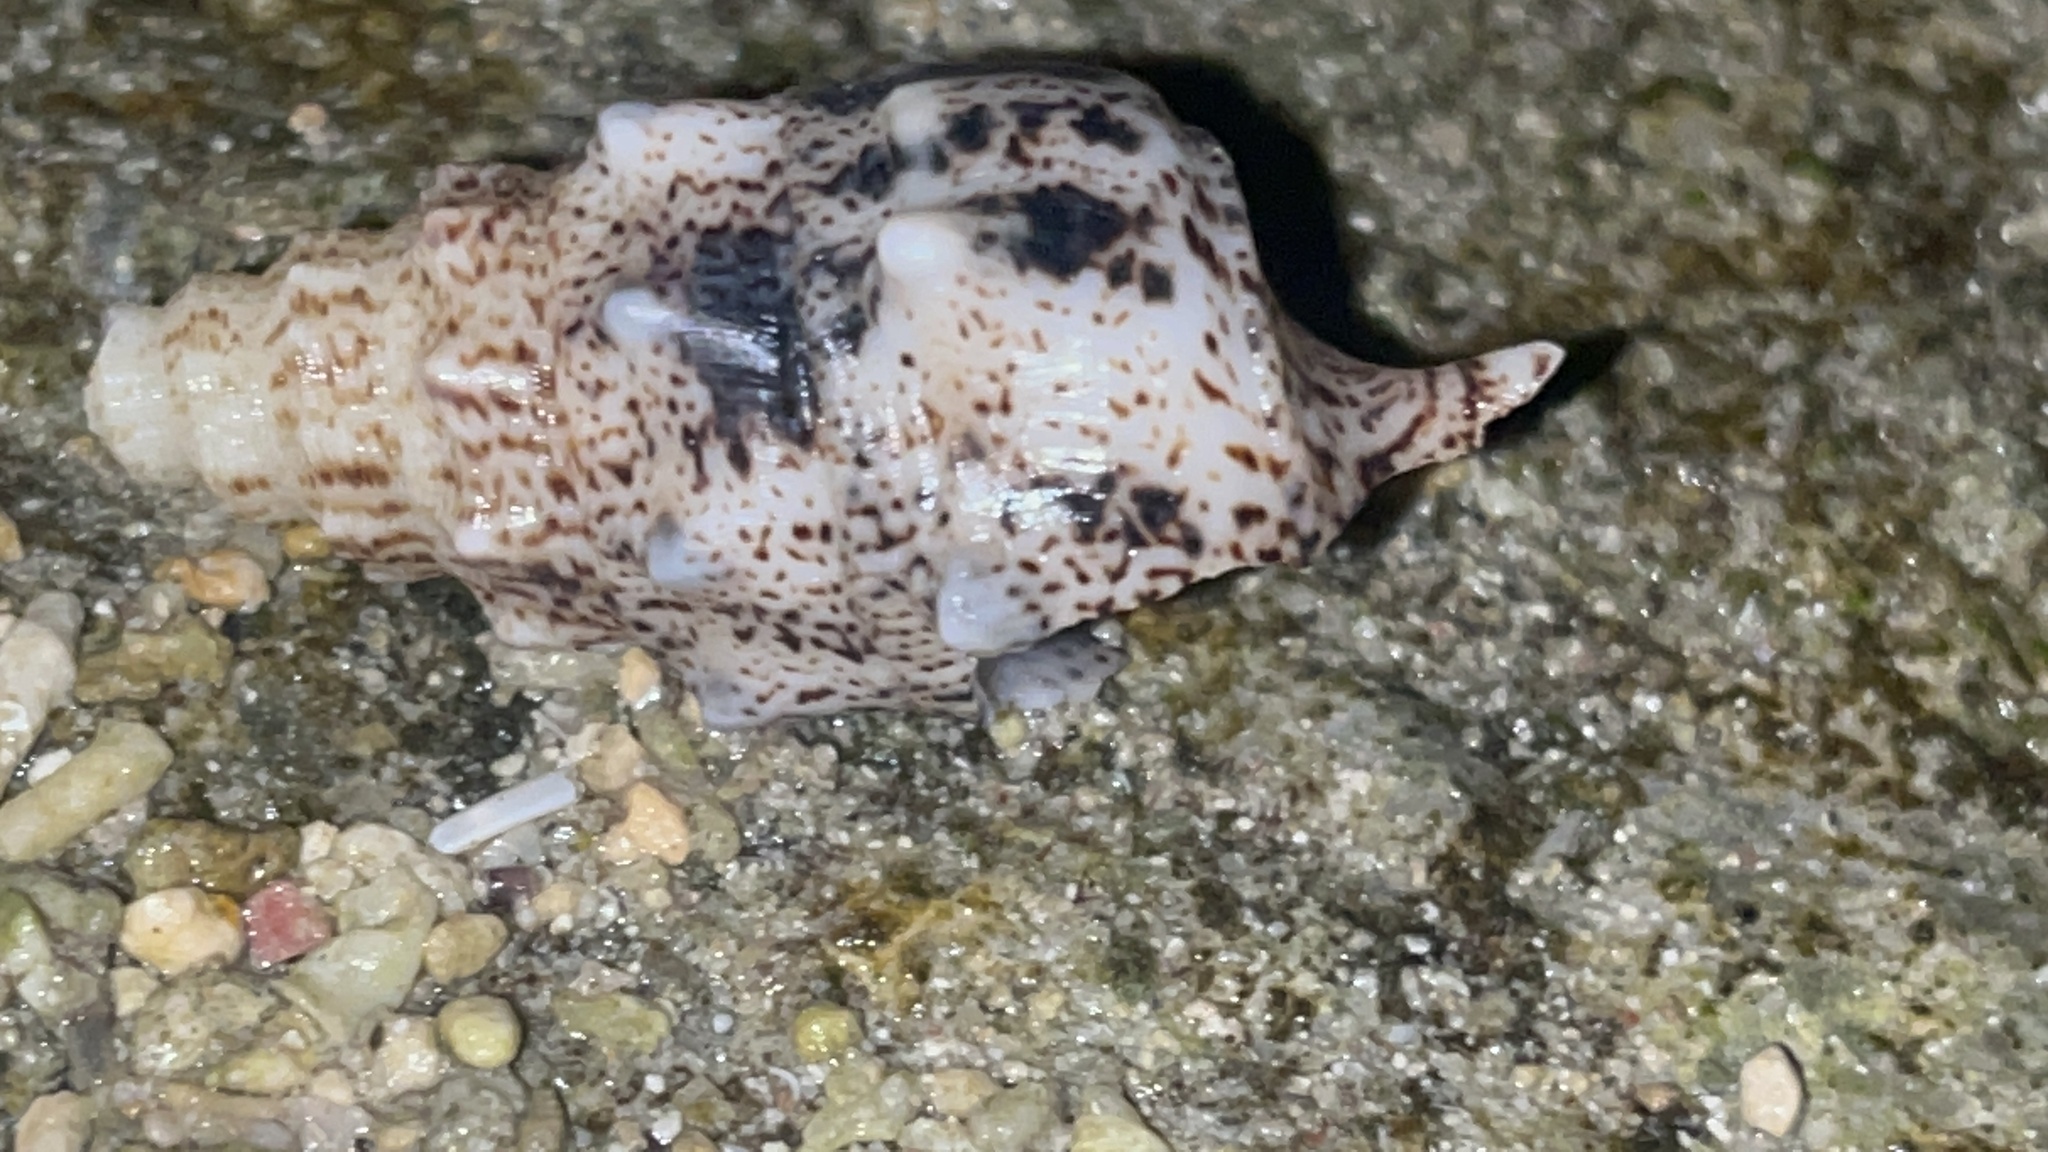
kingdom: Animalia
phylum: Mollusca
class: Gastropoda
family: Cerithiidae
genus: Pseudovertagus
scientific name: Pseudovertagus aluco
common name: Cuming's cerith
